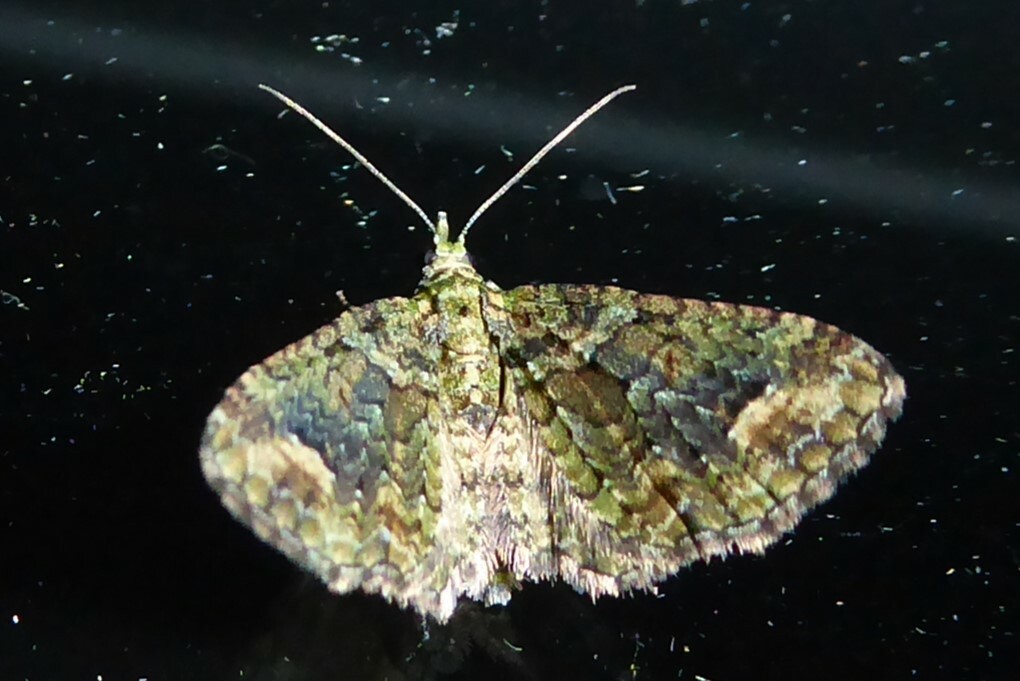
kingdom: Animalia
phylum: Arthropoda
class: Insecta
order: Lepidoptera
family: Geometridae
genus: Idaea
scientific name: Idaea mutanda
